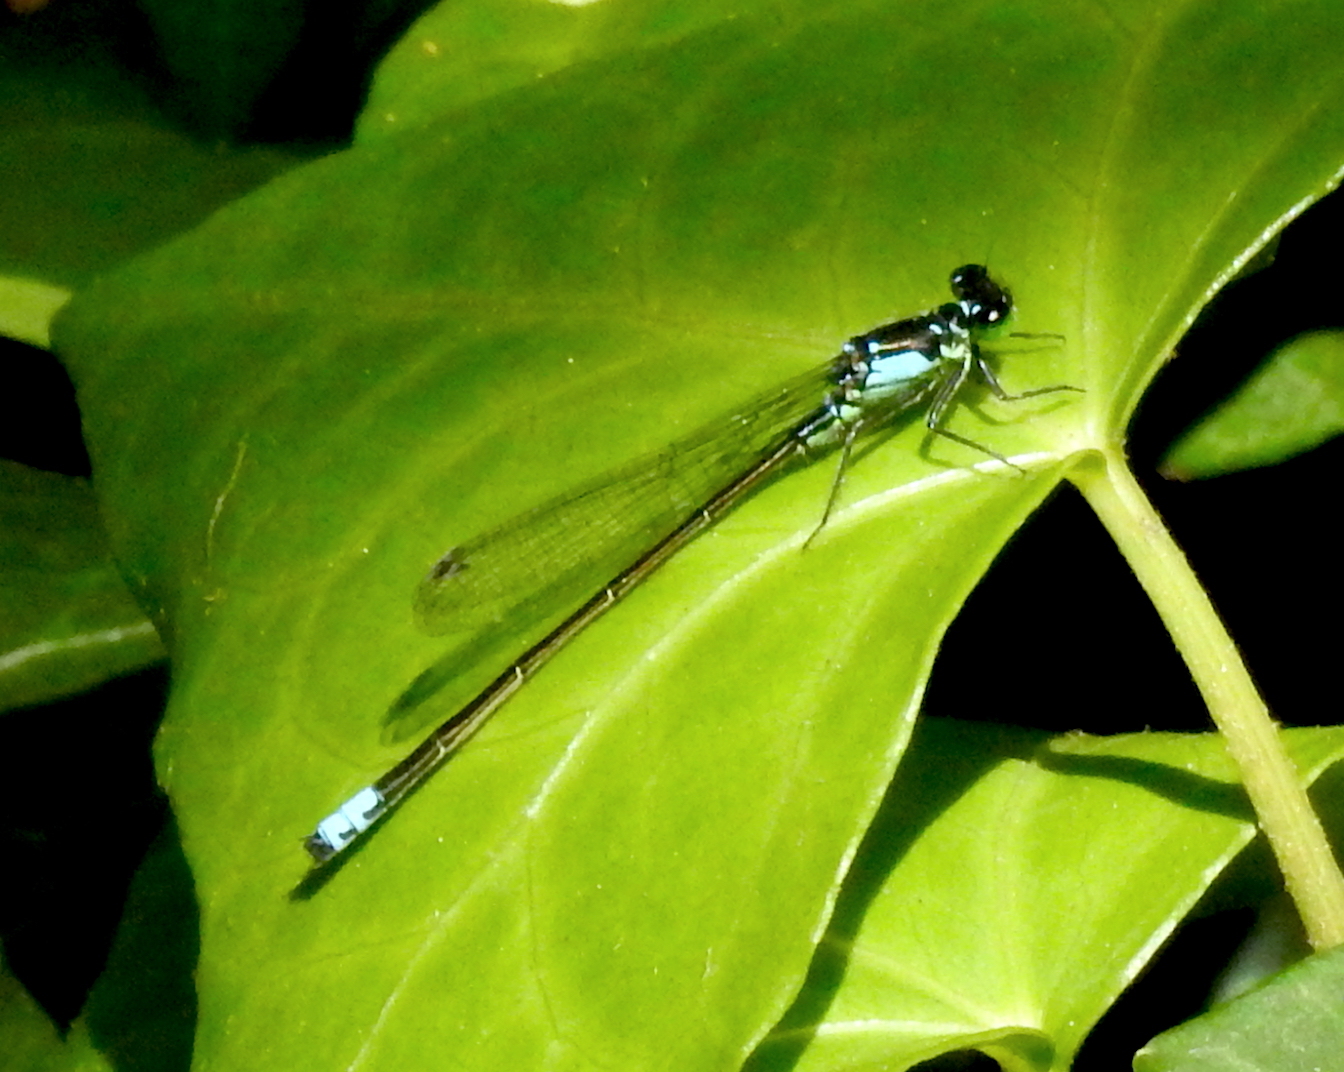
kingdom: Animalia
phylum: Arthropoda
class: Insecta
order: Odonata
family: Coenagrionidae
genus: Ischnura
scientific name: Ischnura cervula
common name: Pacific forktail
